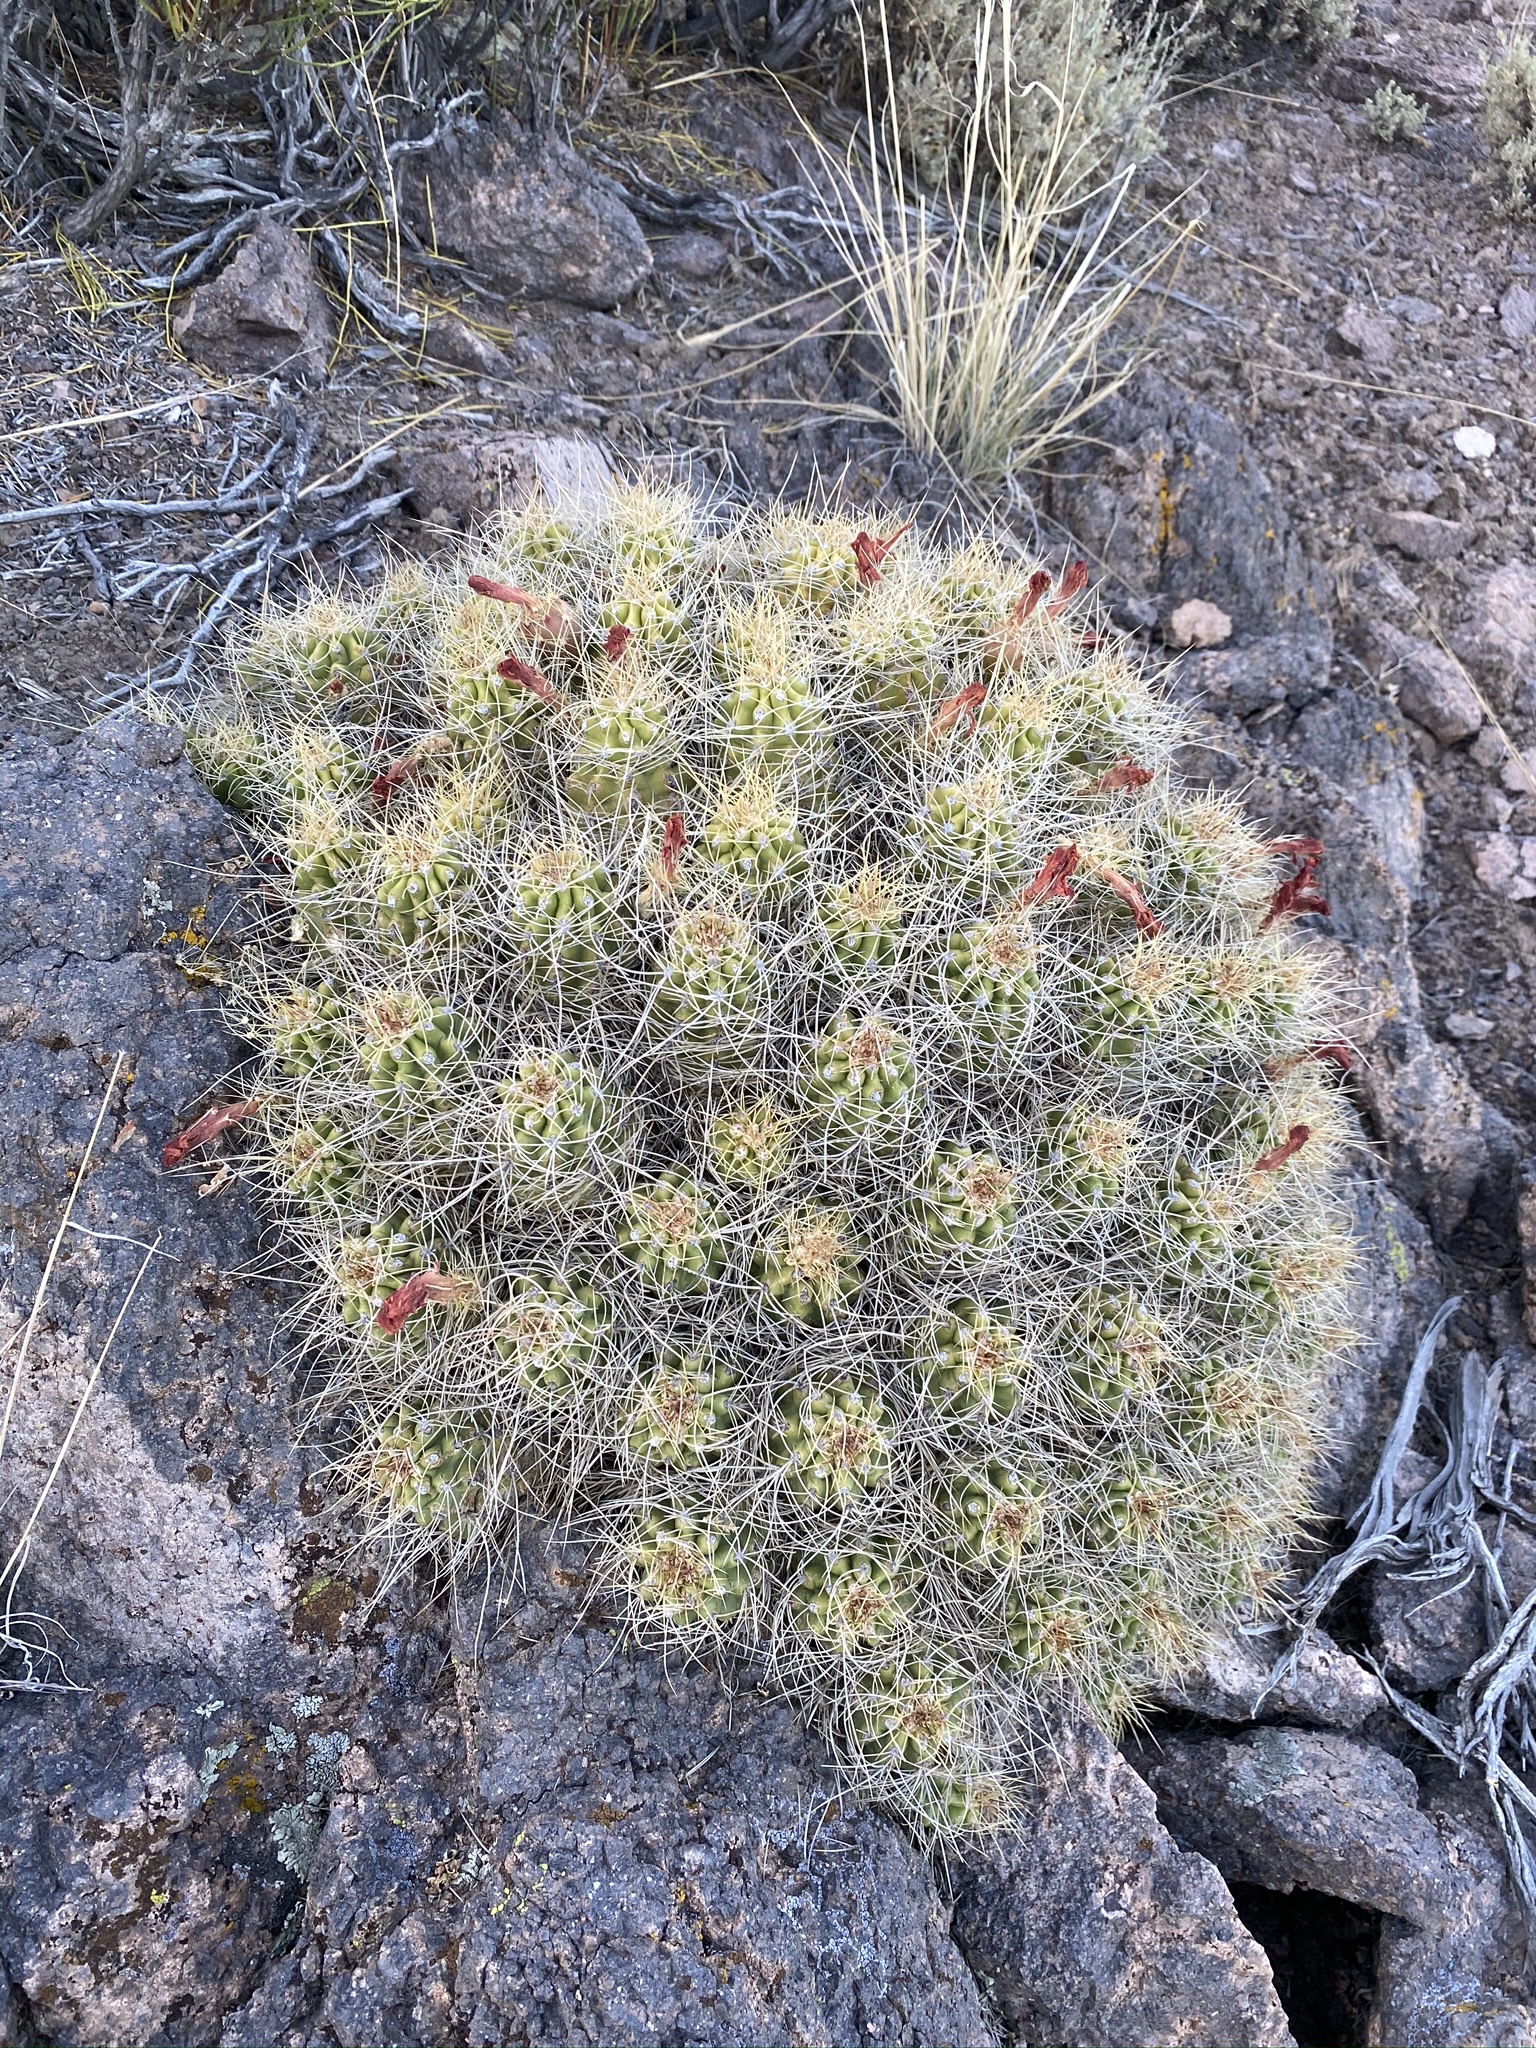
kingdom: Plantae
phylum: Tracheophyta
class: Magnoliopsida
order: Caryophyllales
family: Cactaceae
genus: Echinocereus
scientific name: Echinocereus triglochidiatus
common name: Claretcup hedgehog
